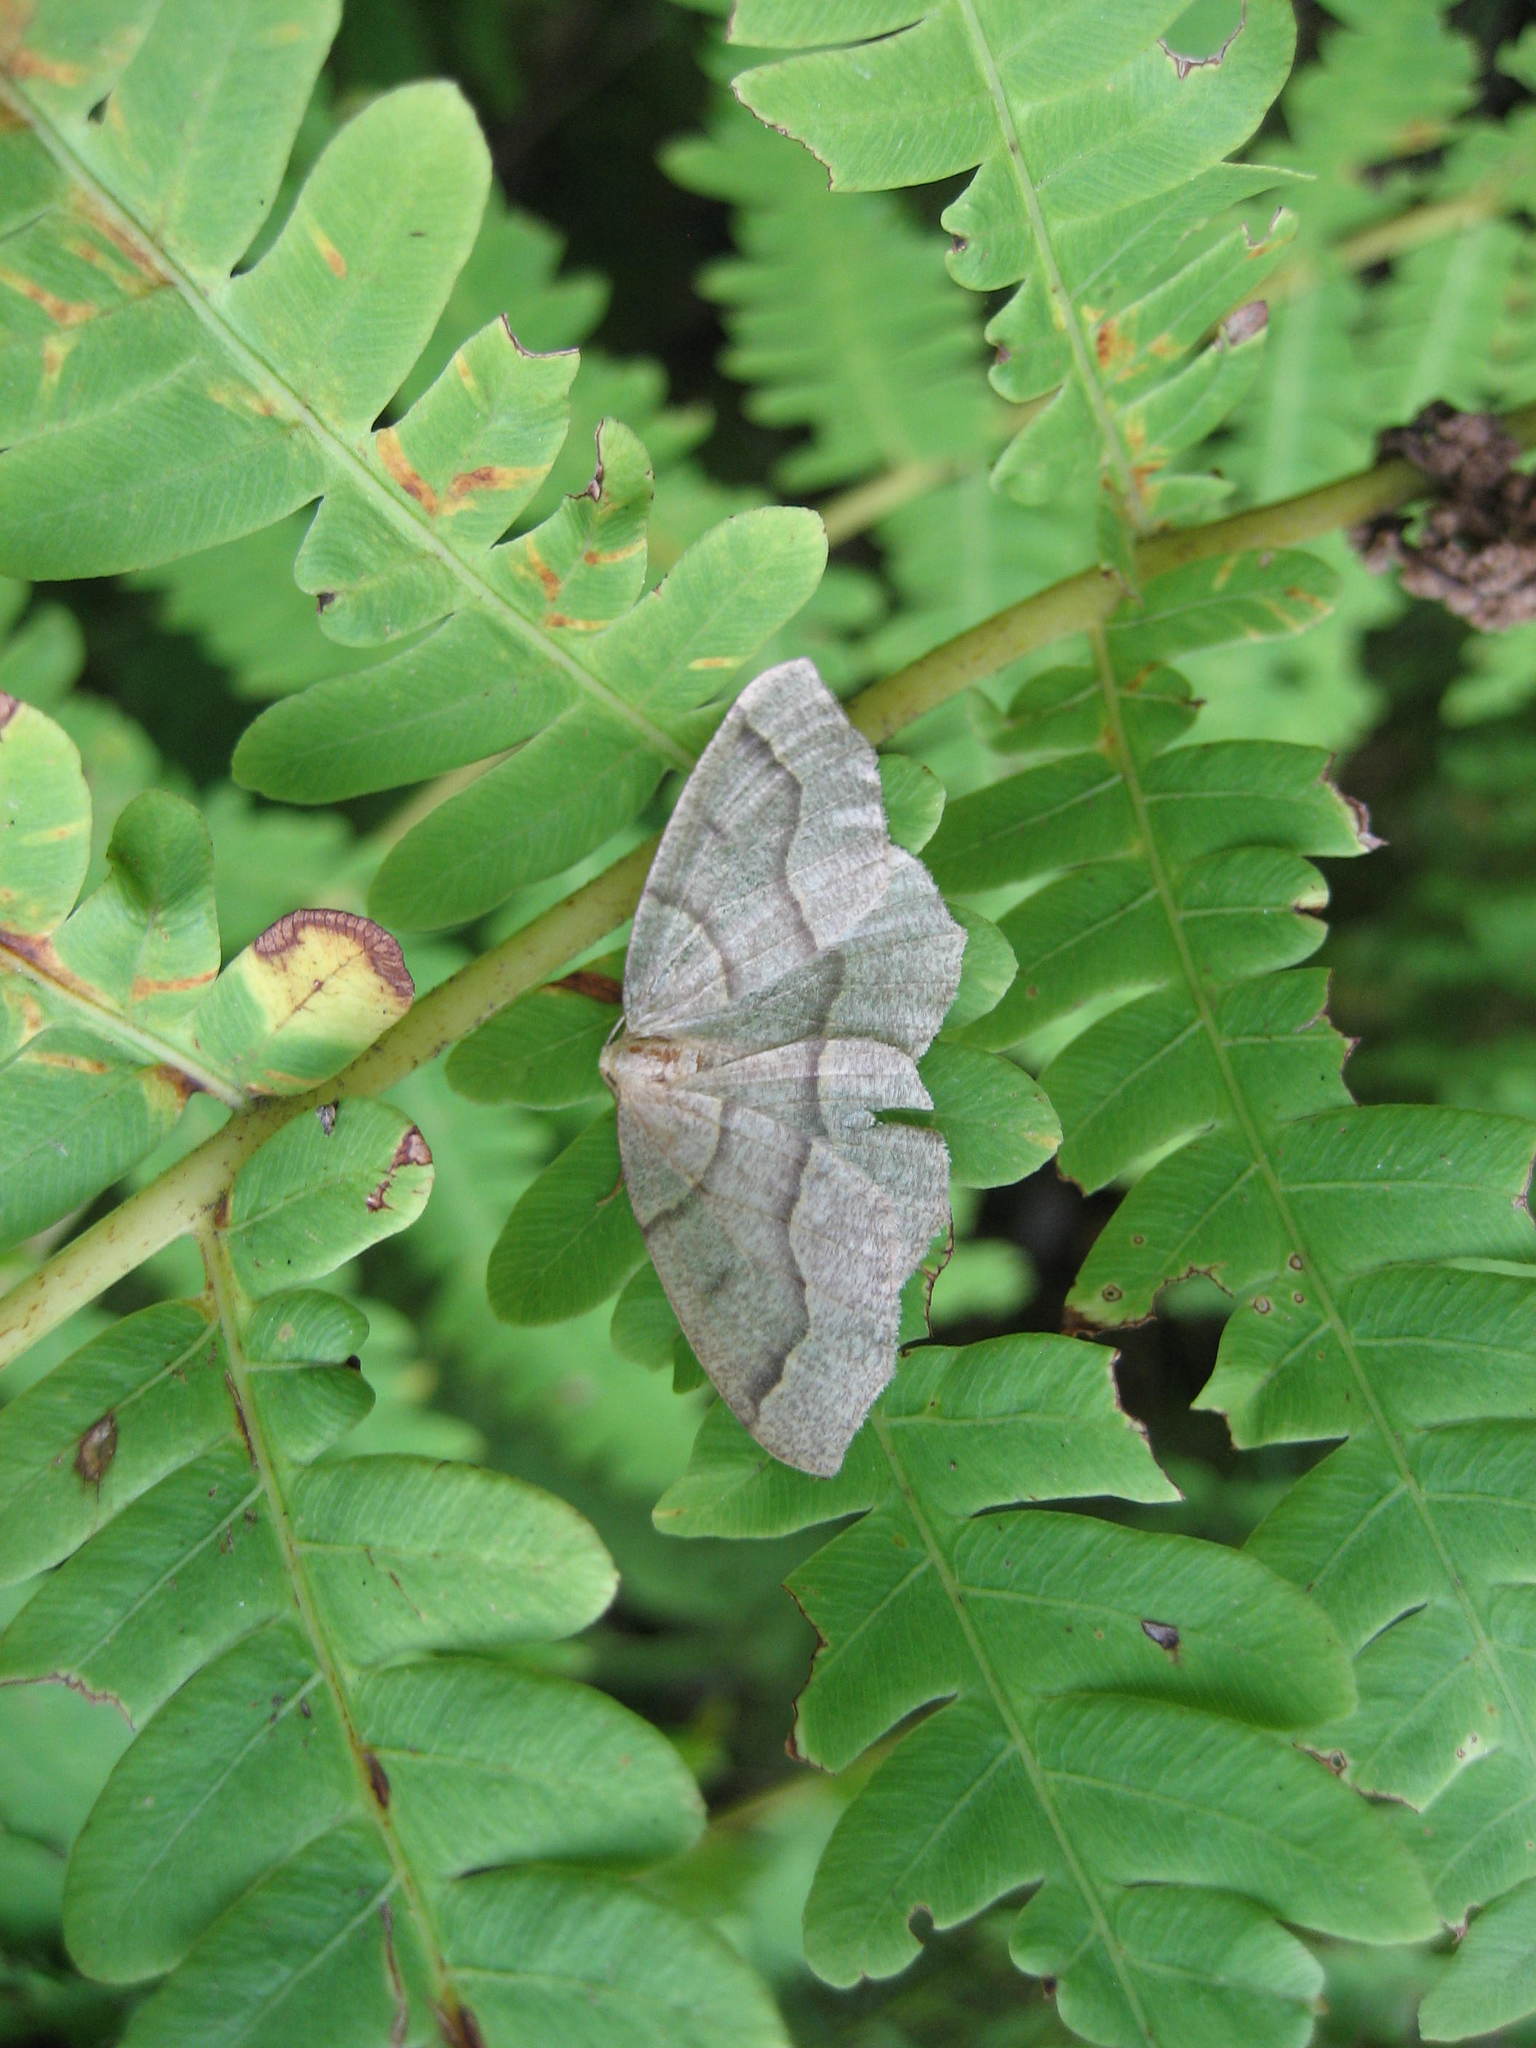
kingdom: Plantae
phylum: Tracheophyta
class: Polypodiopsida
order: Osmundales
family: Osmundaceae
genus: Claytosmunda
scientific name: Claytosmunda claytoniana
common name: Clayton's fern
